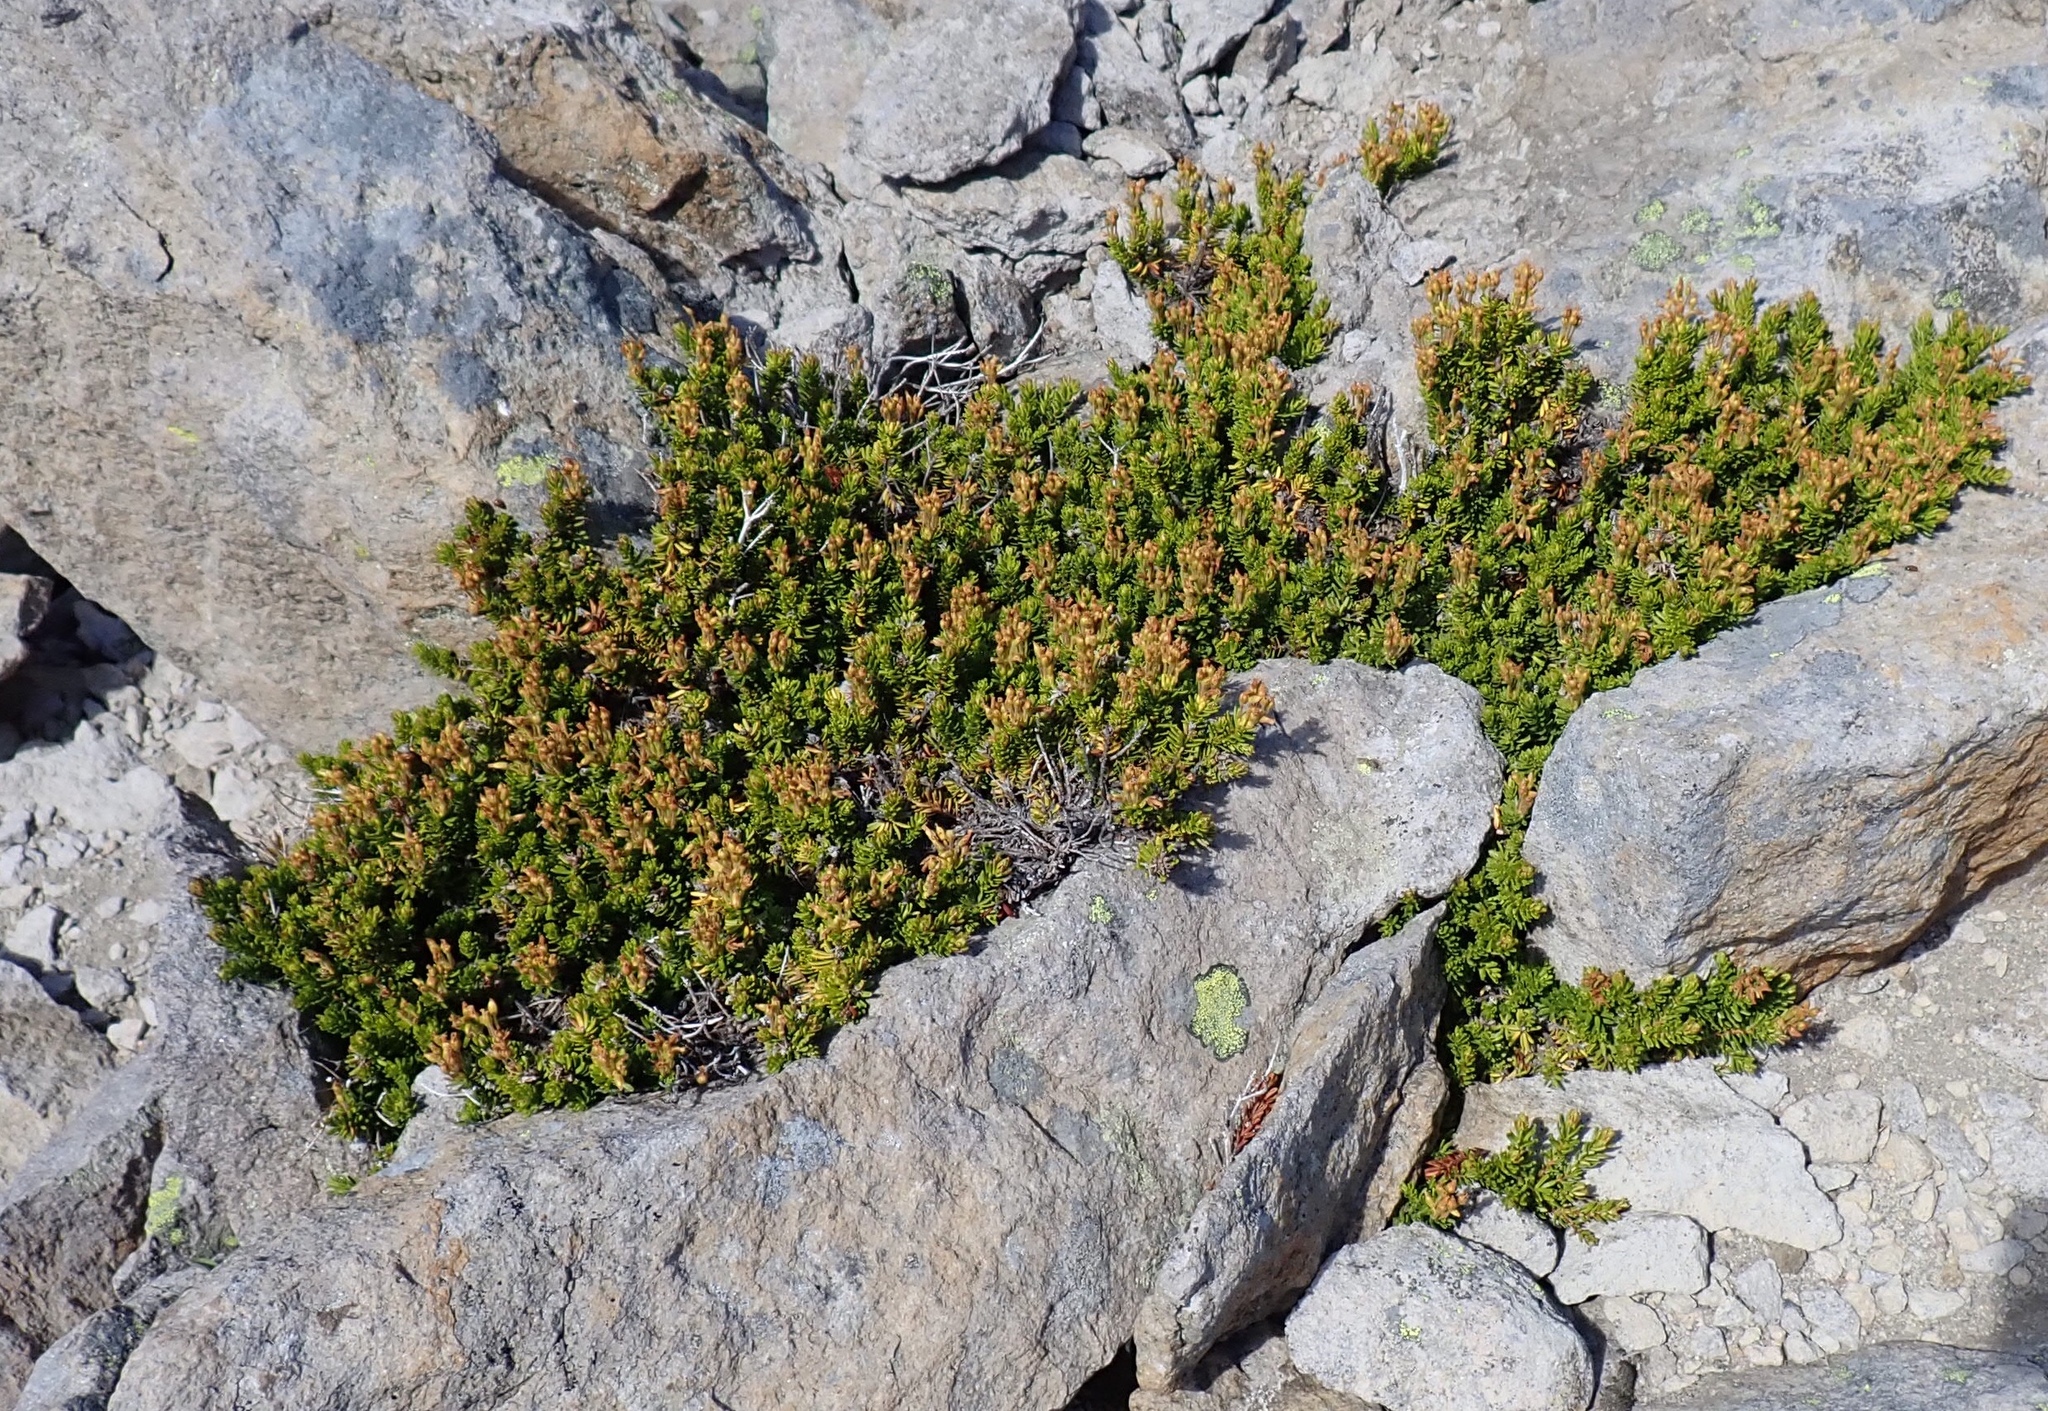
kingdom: Plantae
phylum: Tracheophyta
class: Magnoliopsida
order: Ericales
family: Ericaceae
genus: Phyllodoce
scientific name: Phyllodoce glanduliflora
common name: Cream mountain heather
